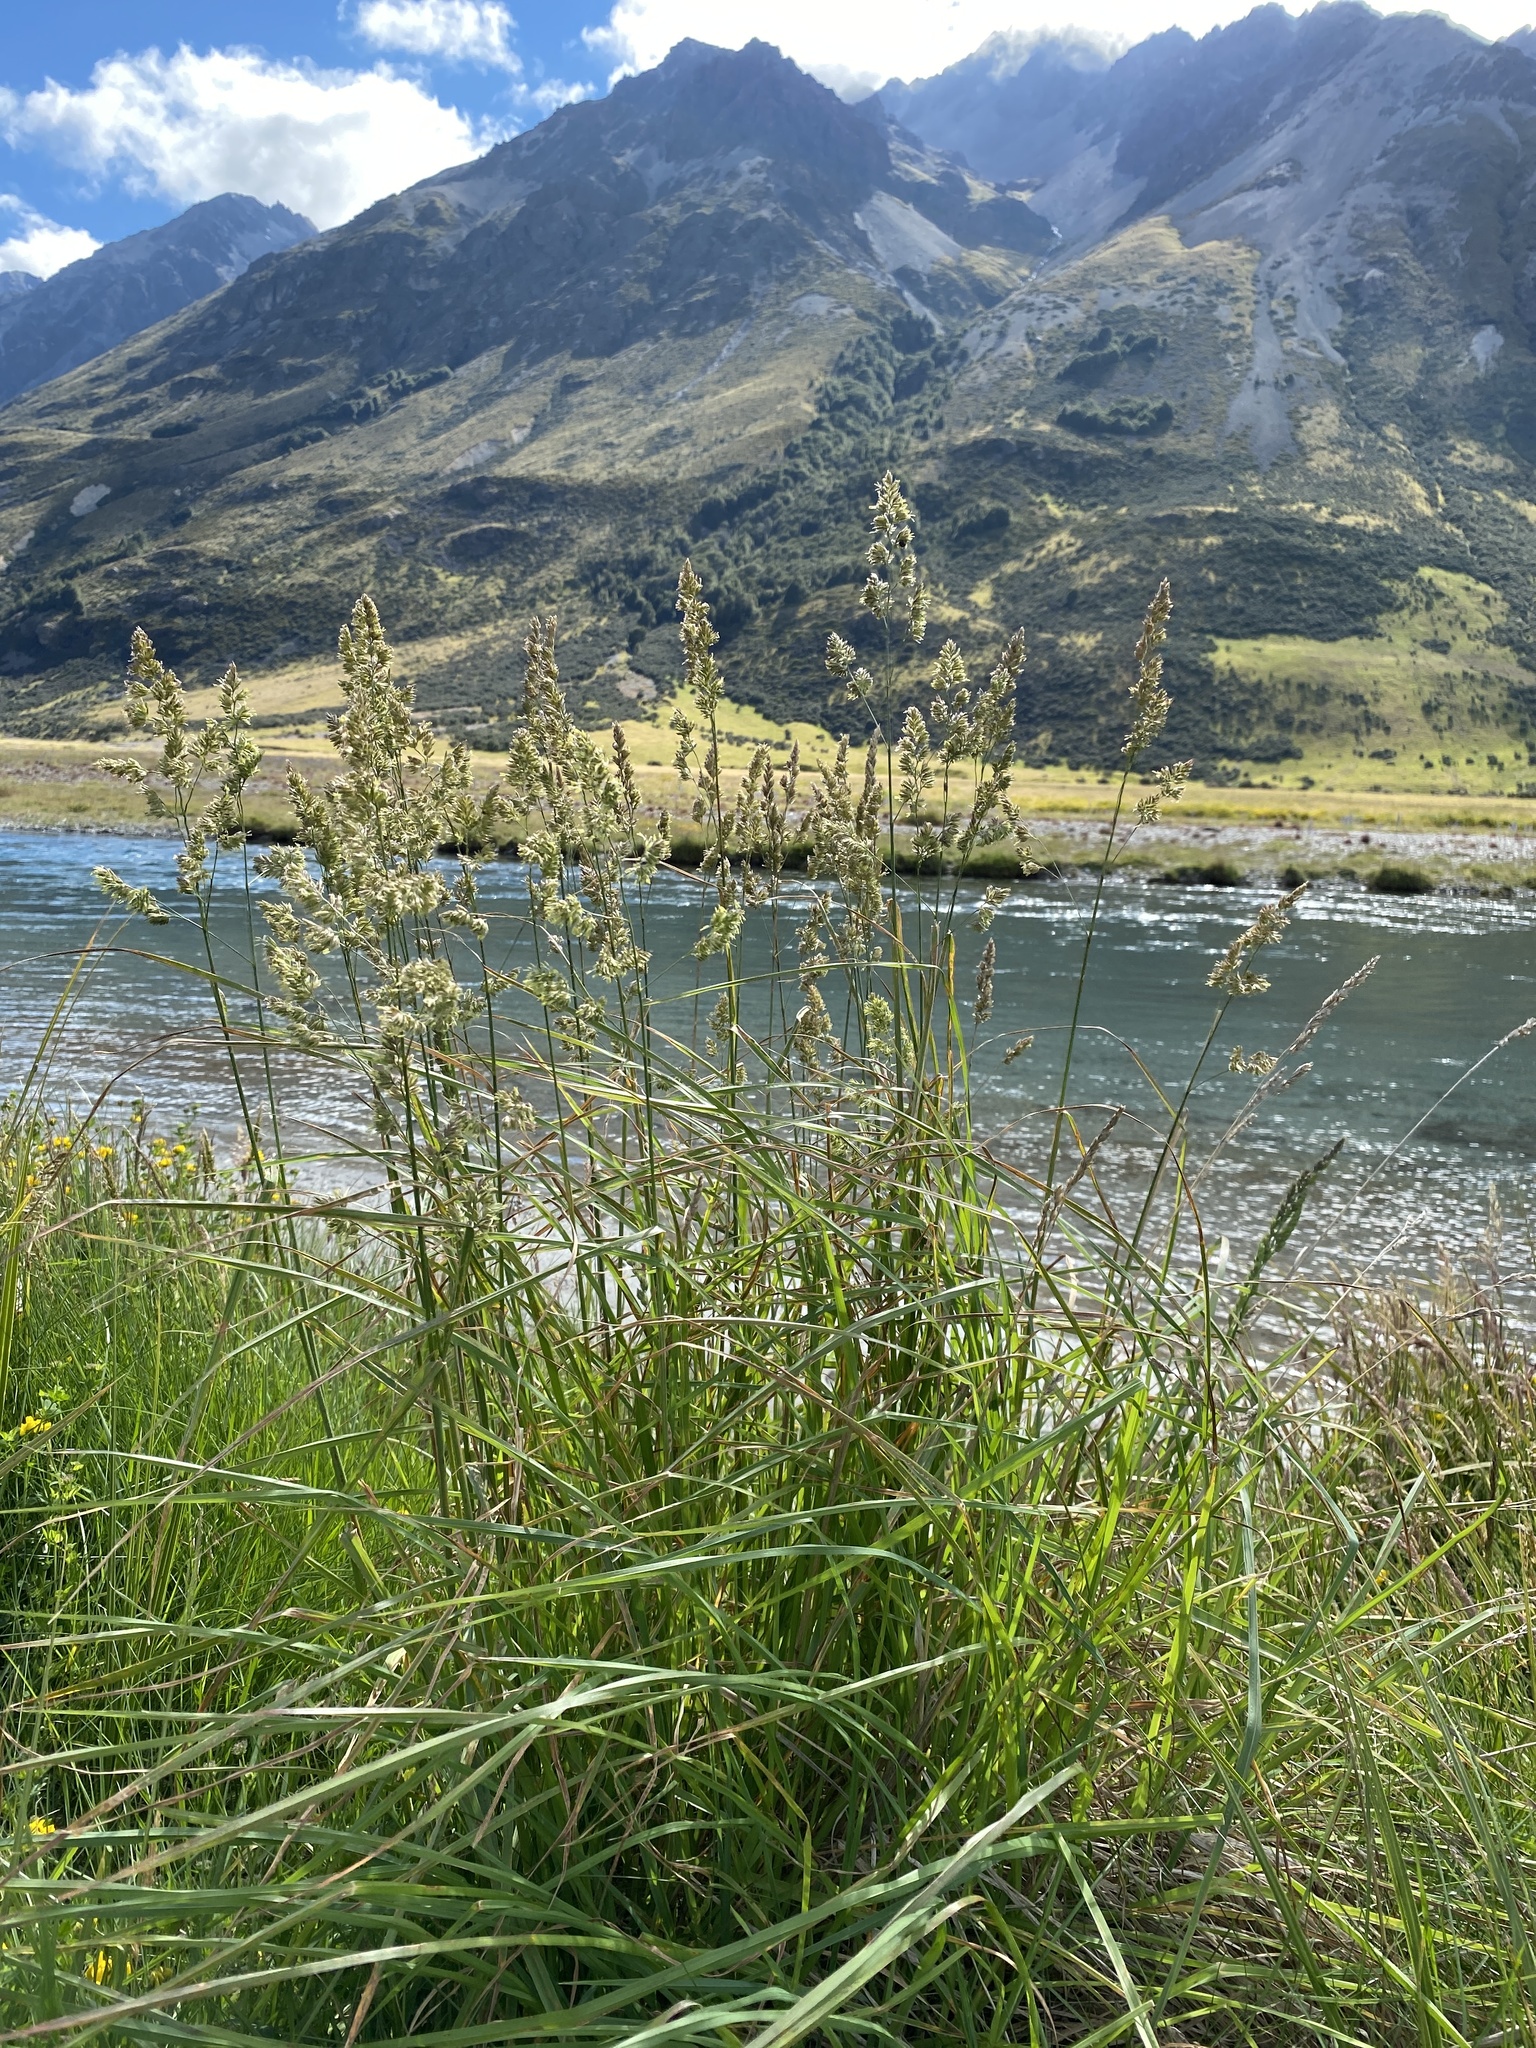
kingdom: Plantae
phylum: Tracheophyta
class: Liliopsida
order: Poales
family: Poaceae
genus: Dactylis
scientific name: Dactylis glomerata
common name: Orchardgrass
